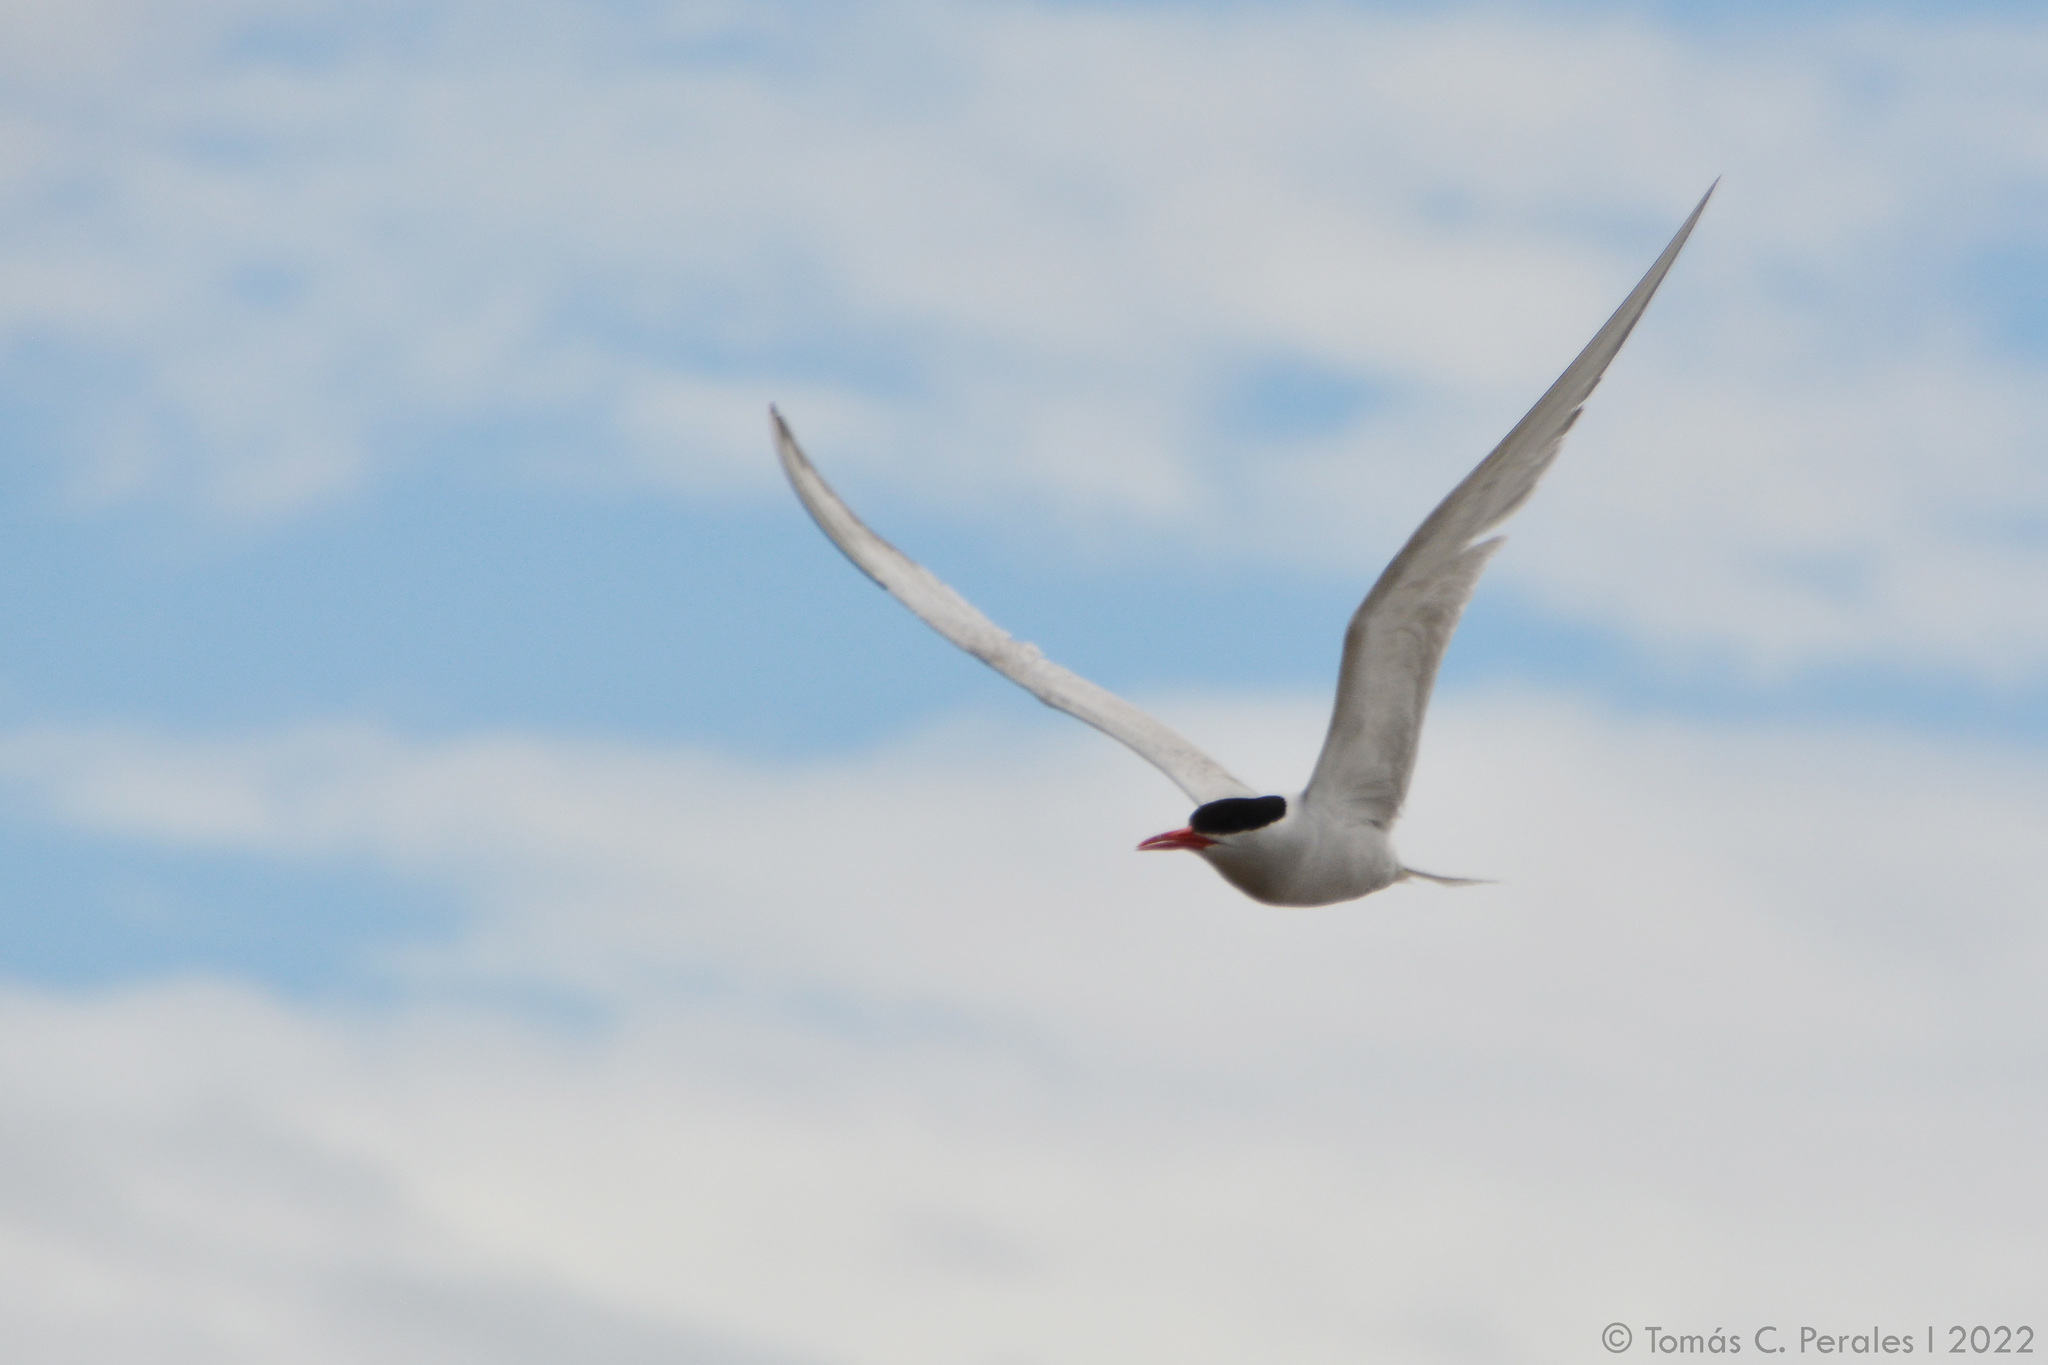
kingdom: Animalia
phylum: Chordata
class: Aves
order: Charadriiformes
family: Laridae
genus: Sterna
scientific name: Sterna hirundinacea
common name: South american tern
